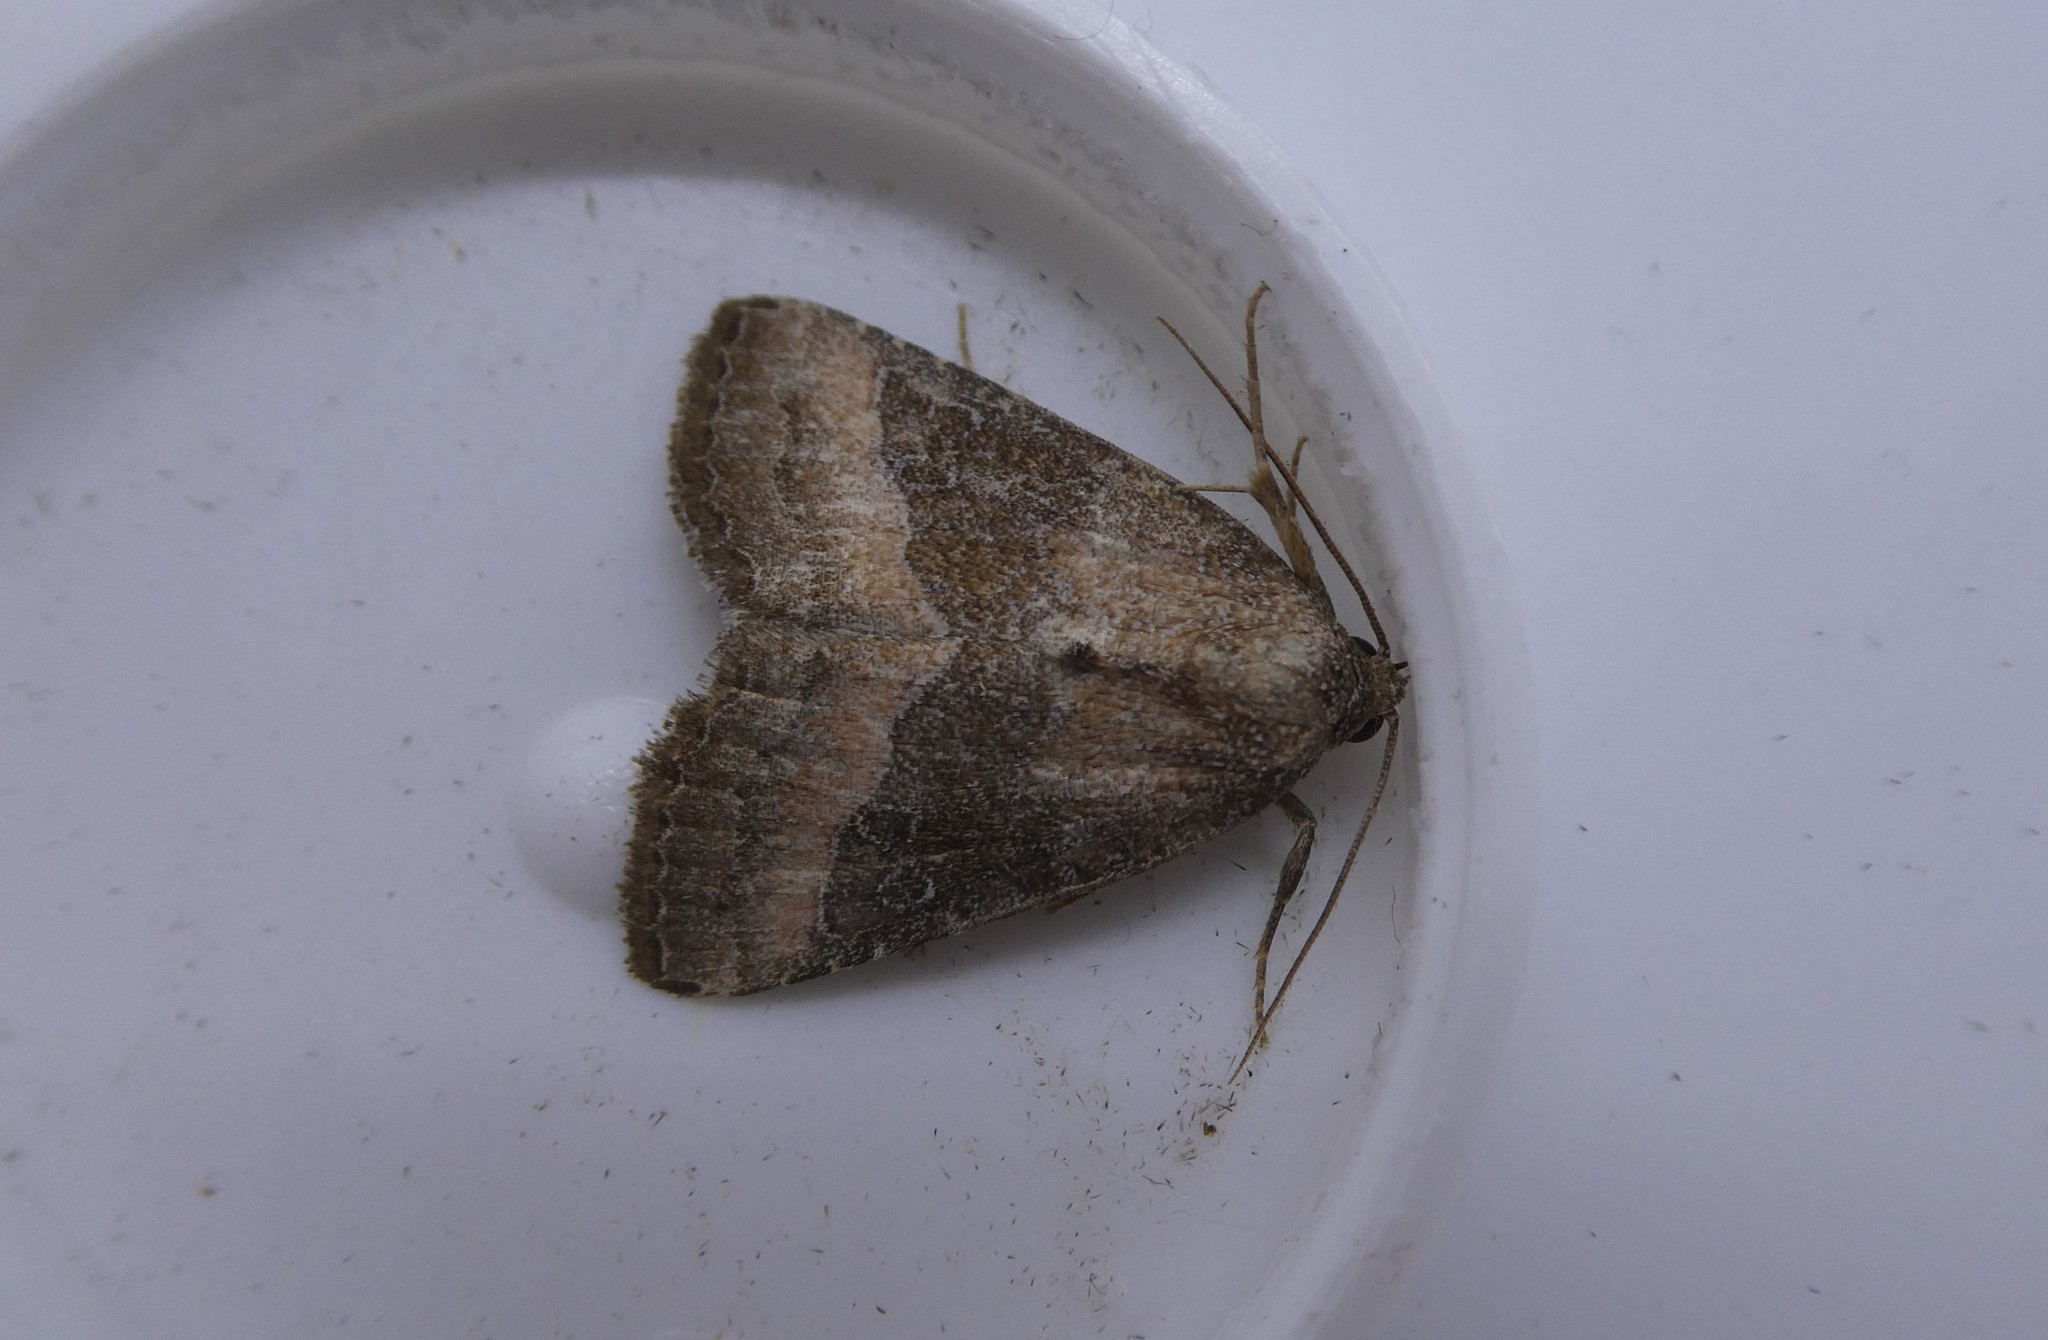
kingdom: Animalia
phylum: Arthropoda
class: Insecta
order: Lepidoptera
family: Noctuidae
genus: Ogdoconta
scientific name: Ogdoconta cinereola
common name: Common pinkband
